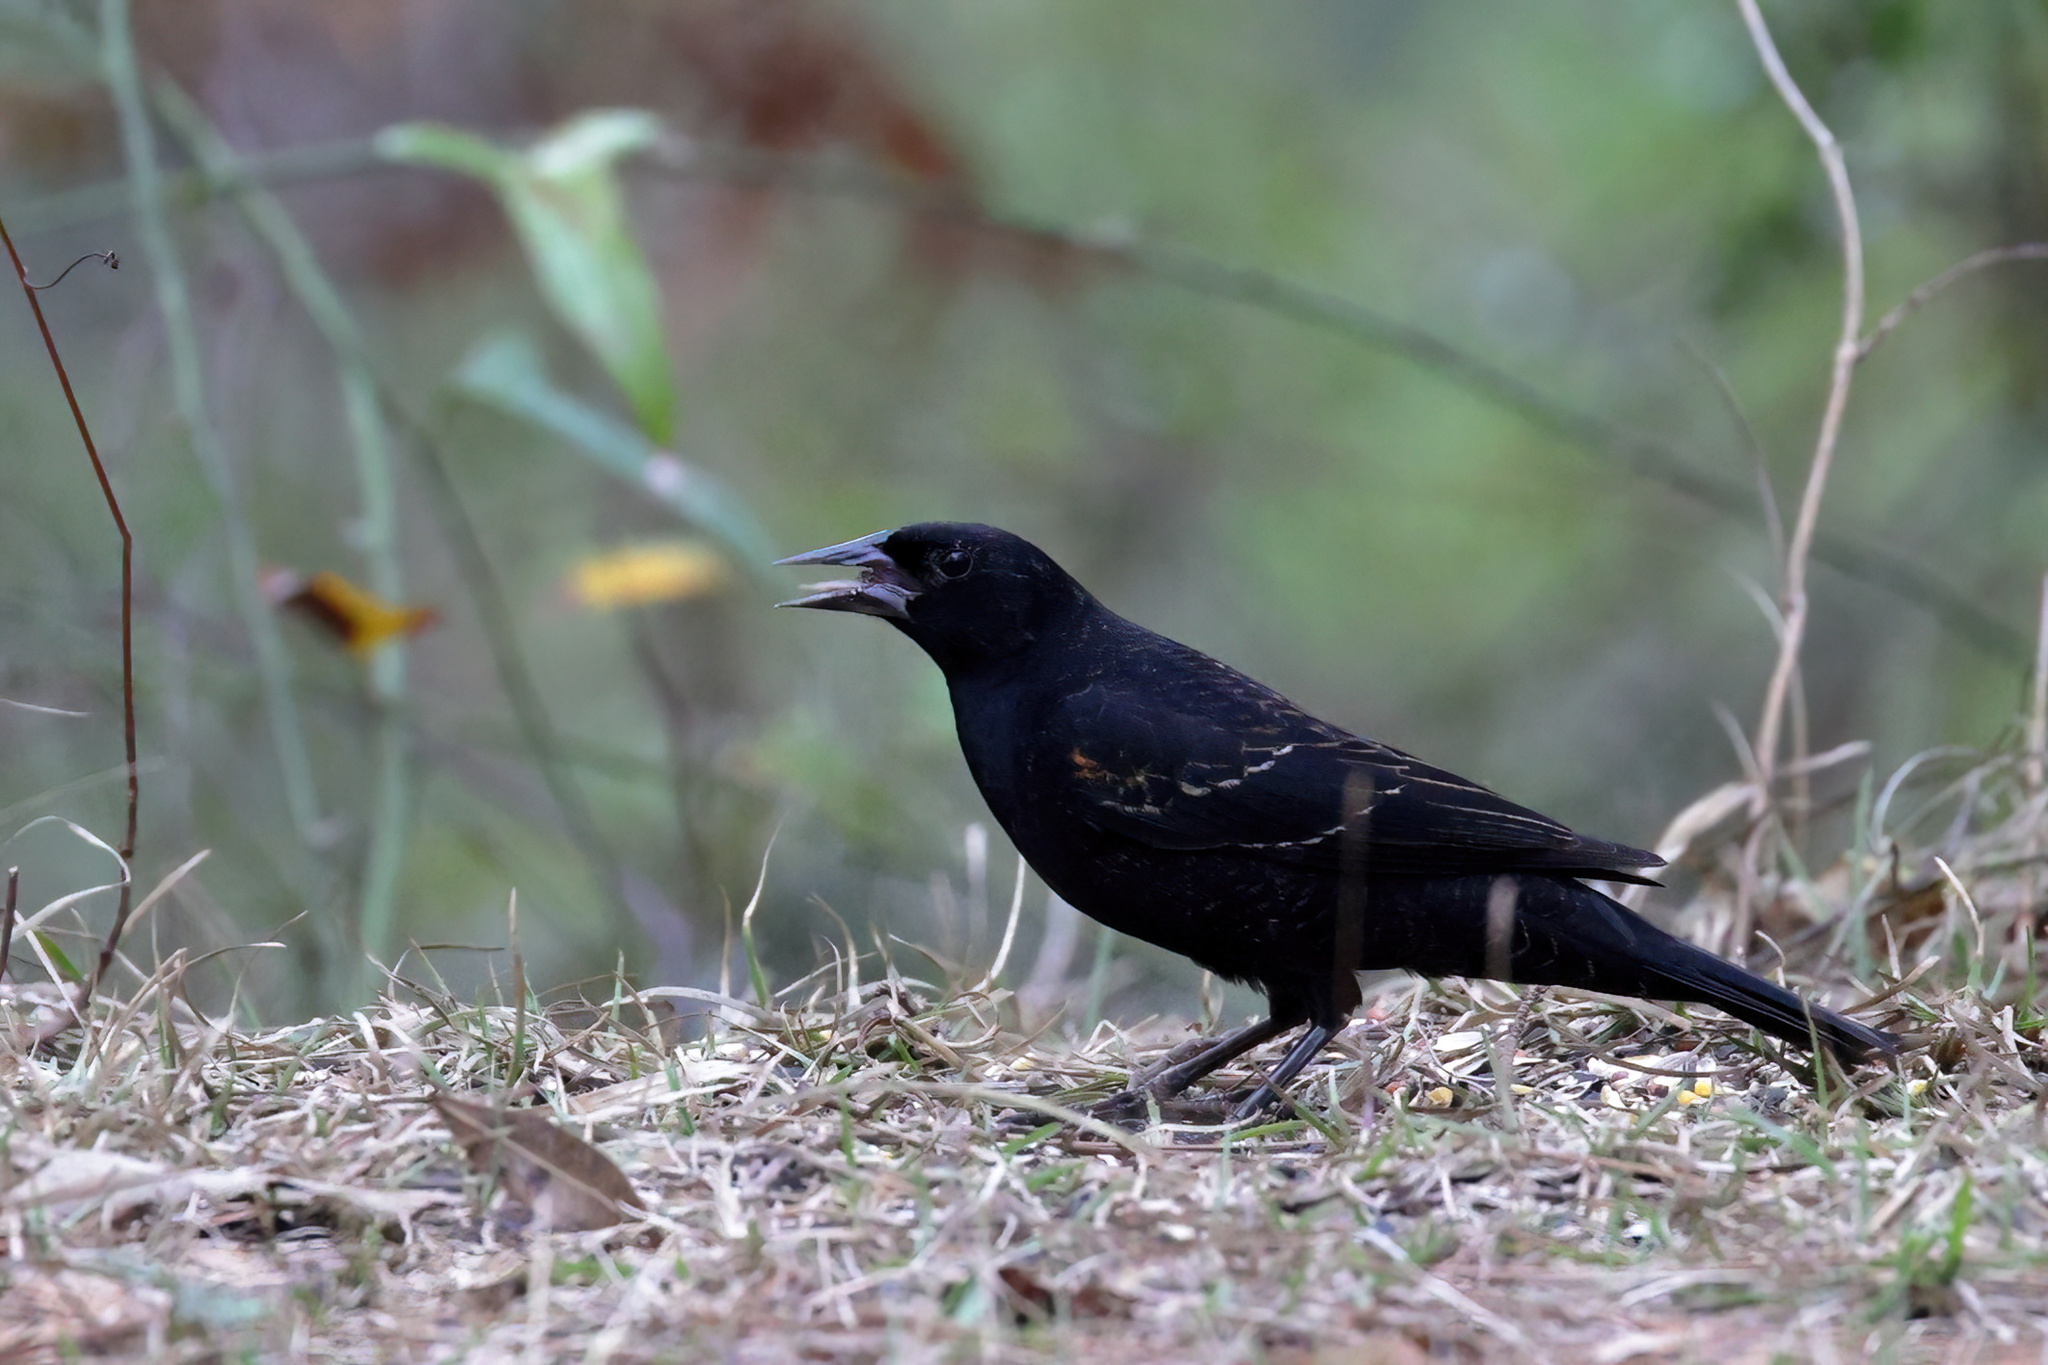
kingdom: Animalia
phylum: Chordata
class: Aves
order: Passeriformes
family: Icteridae
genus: Agelaius
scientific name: Agelaius phoeniceus
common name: Red-winged blackbird
